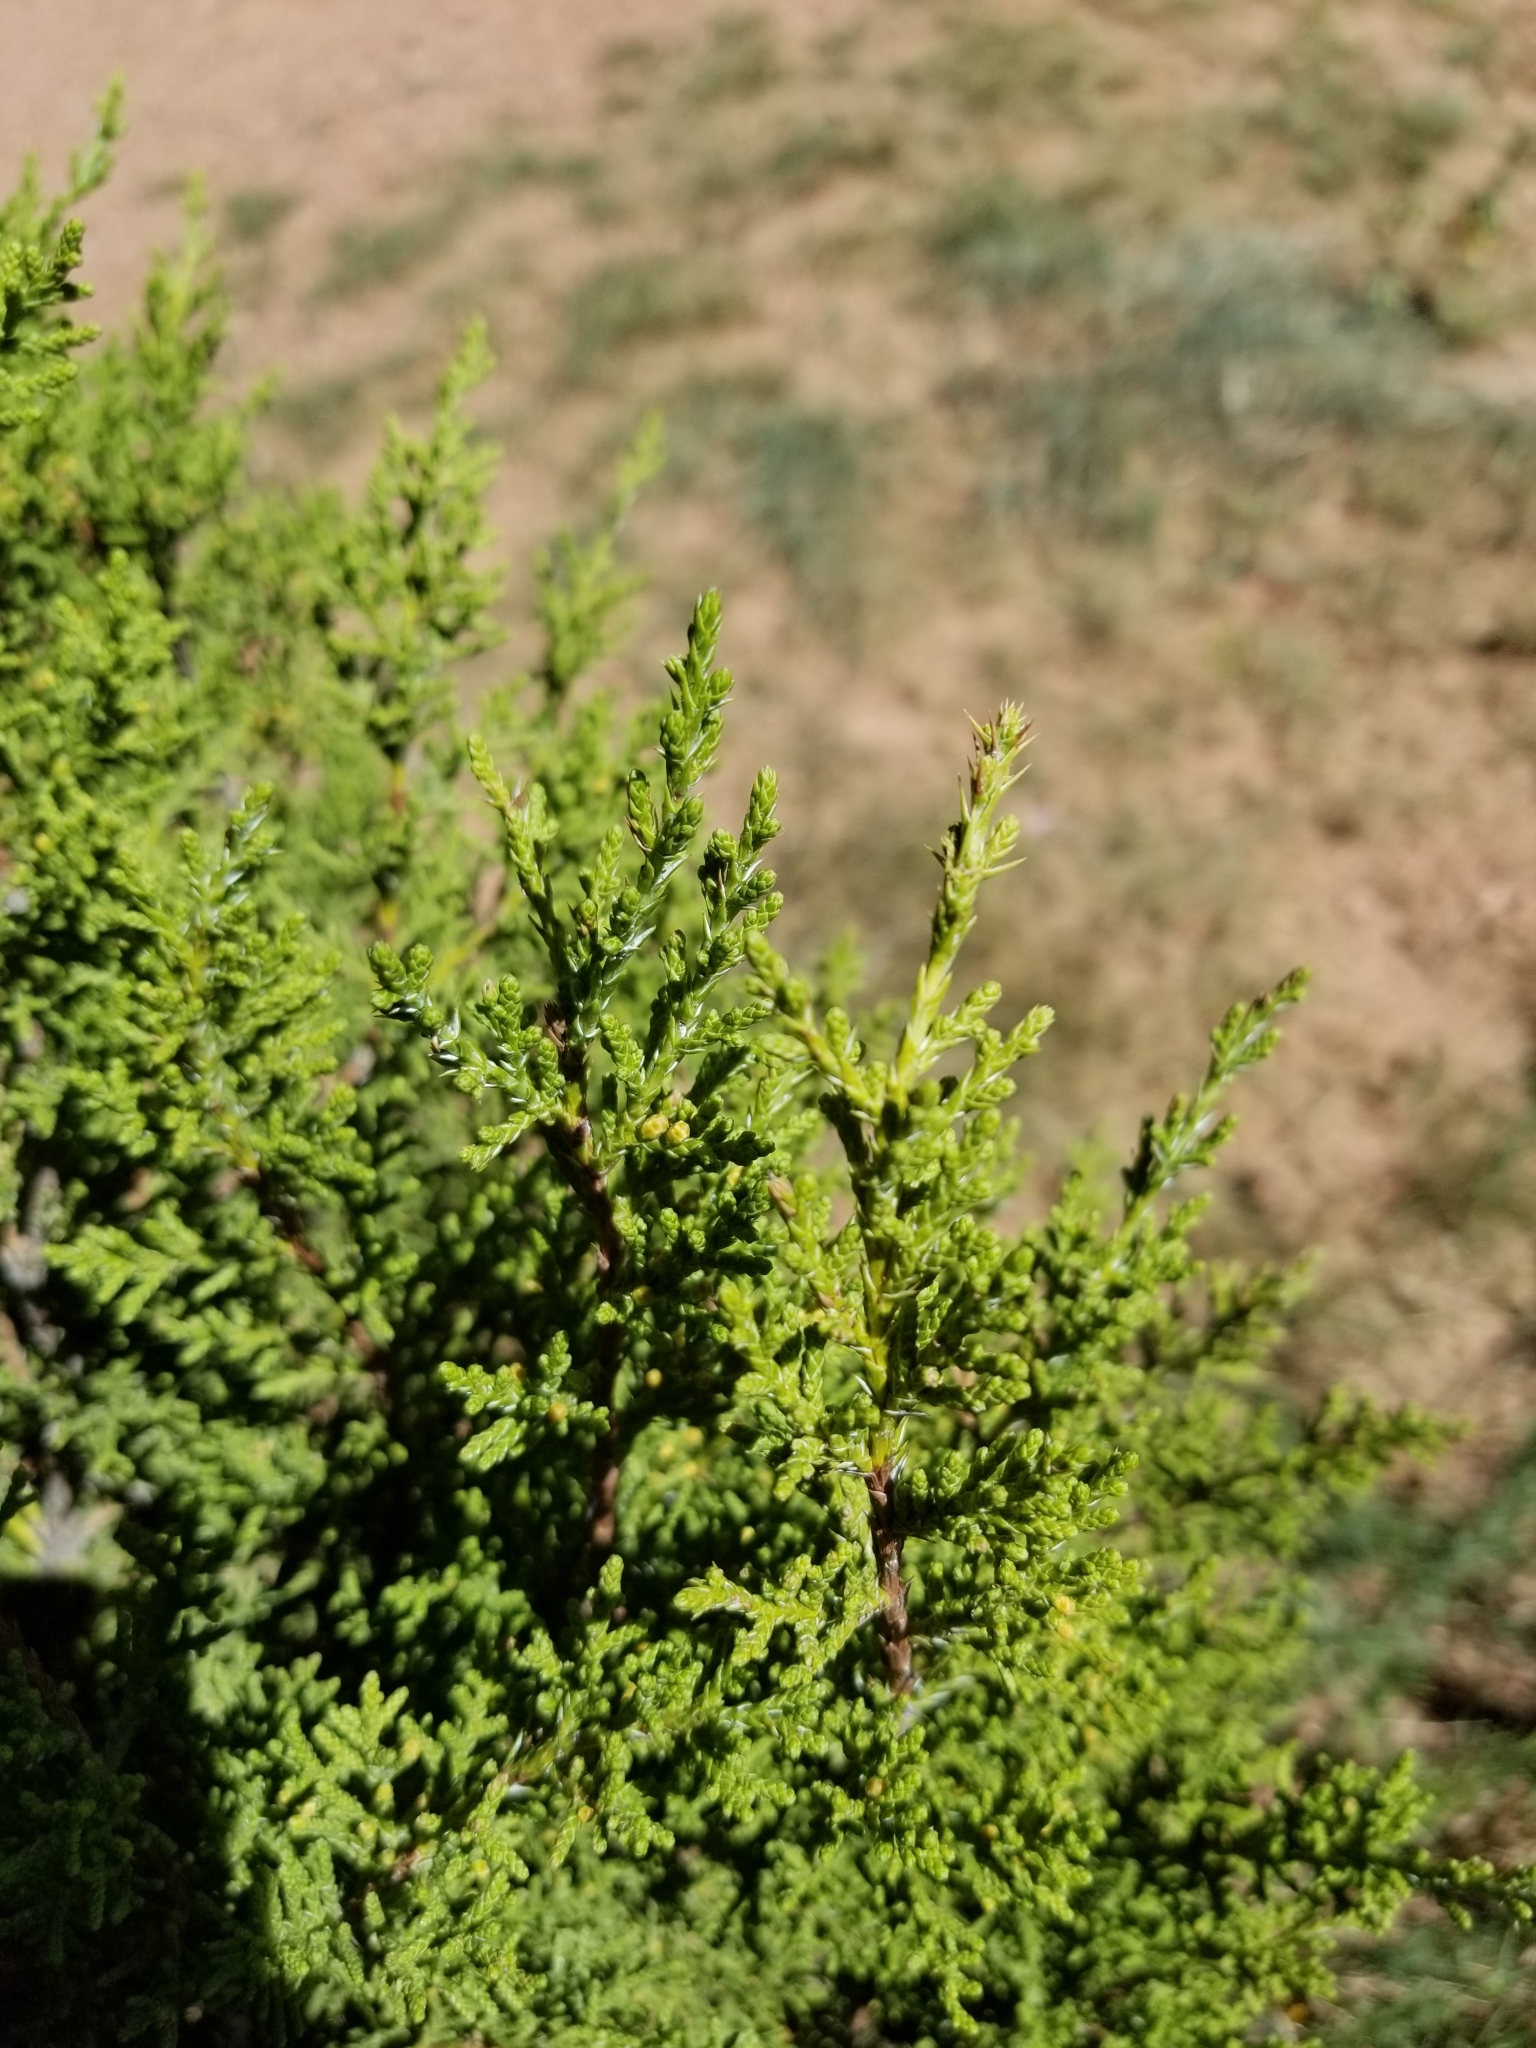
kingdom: Plantae
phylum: Tracheophyta
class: Pinopsida
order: Pinales
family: Cupressaceae
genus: Juniperus
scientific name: Juniperus monosperma
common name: One-seed juniper
